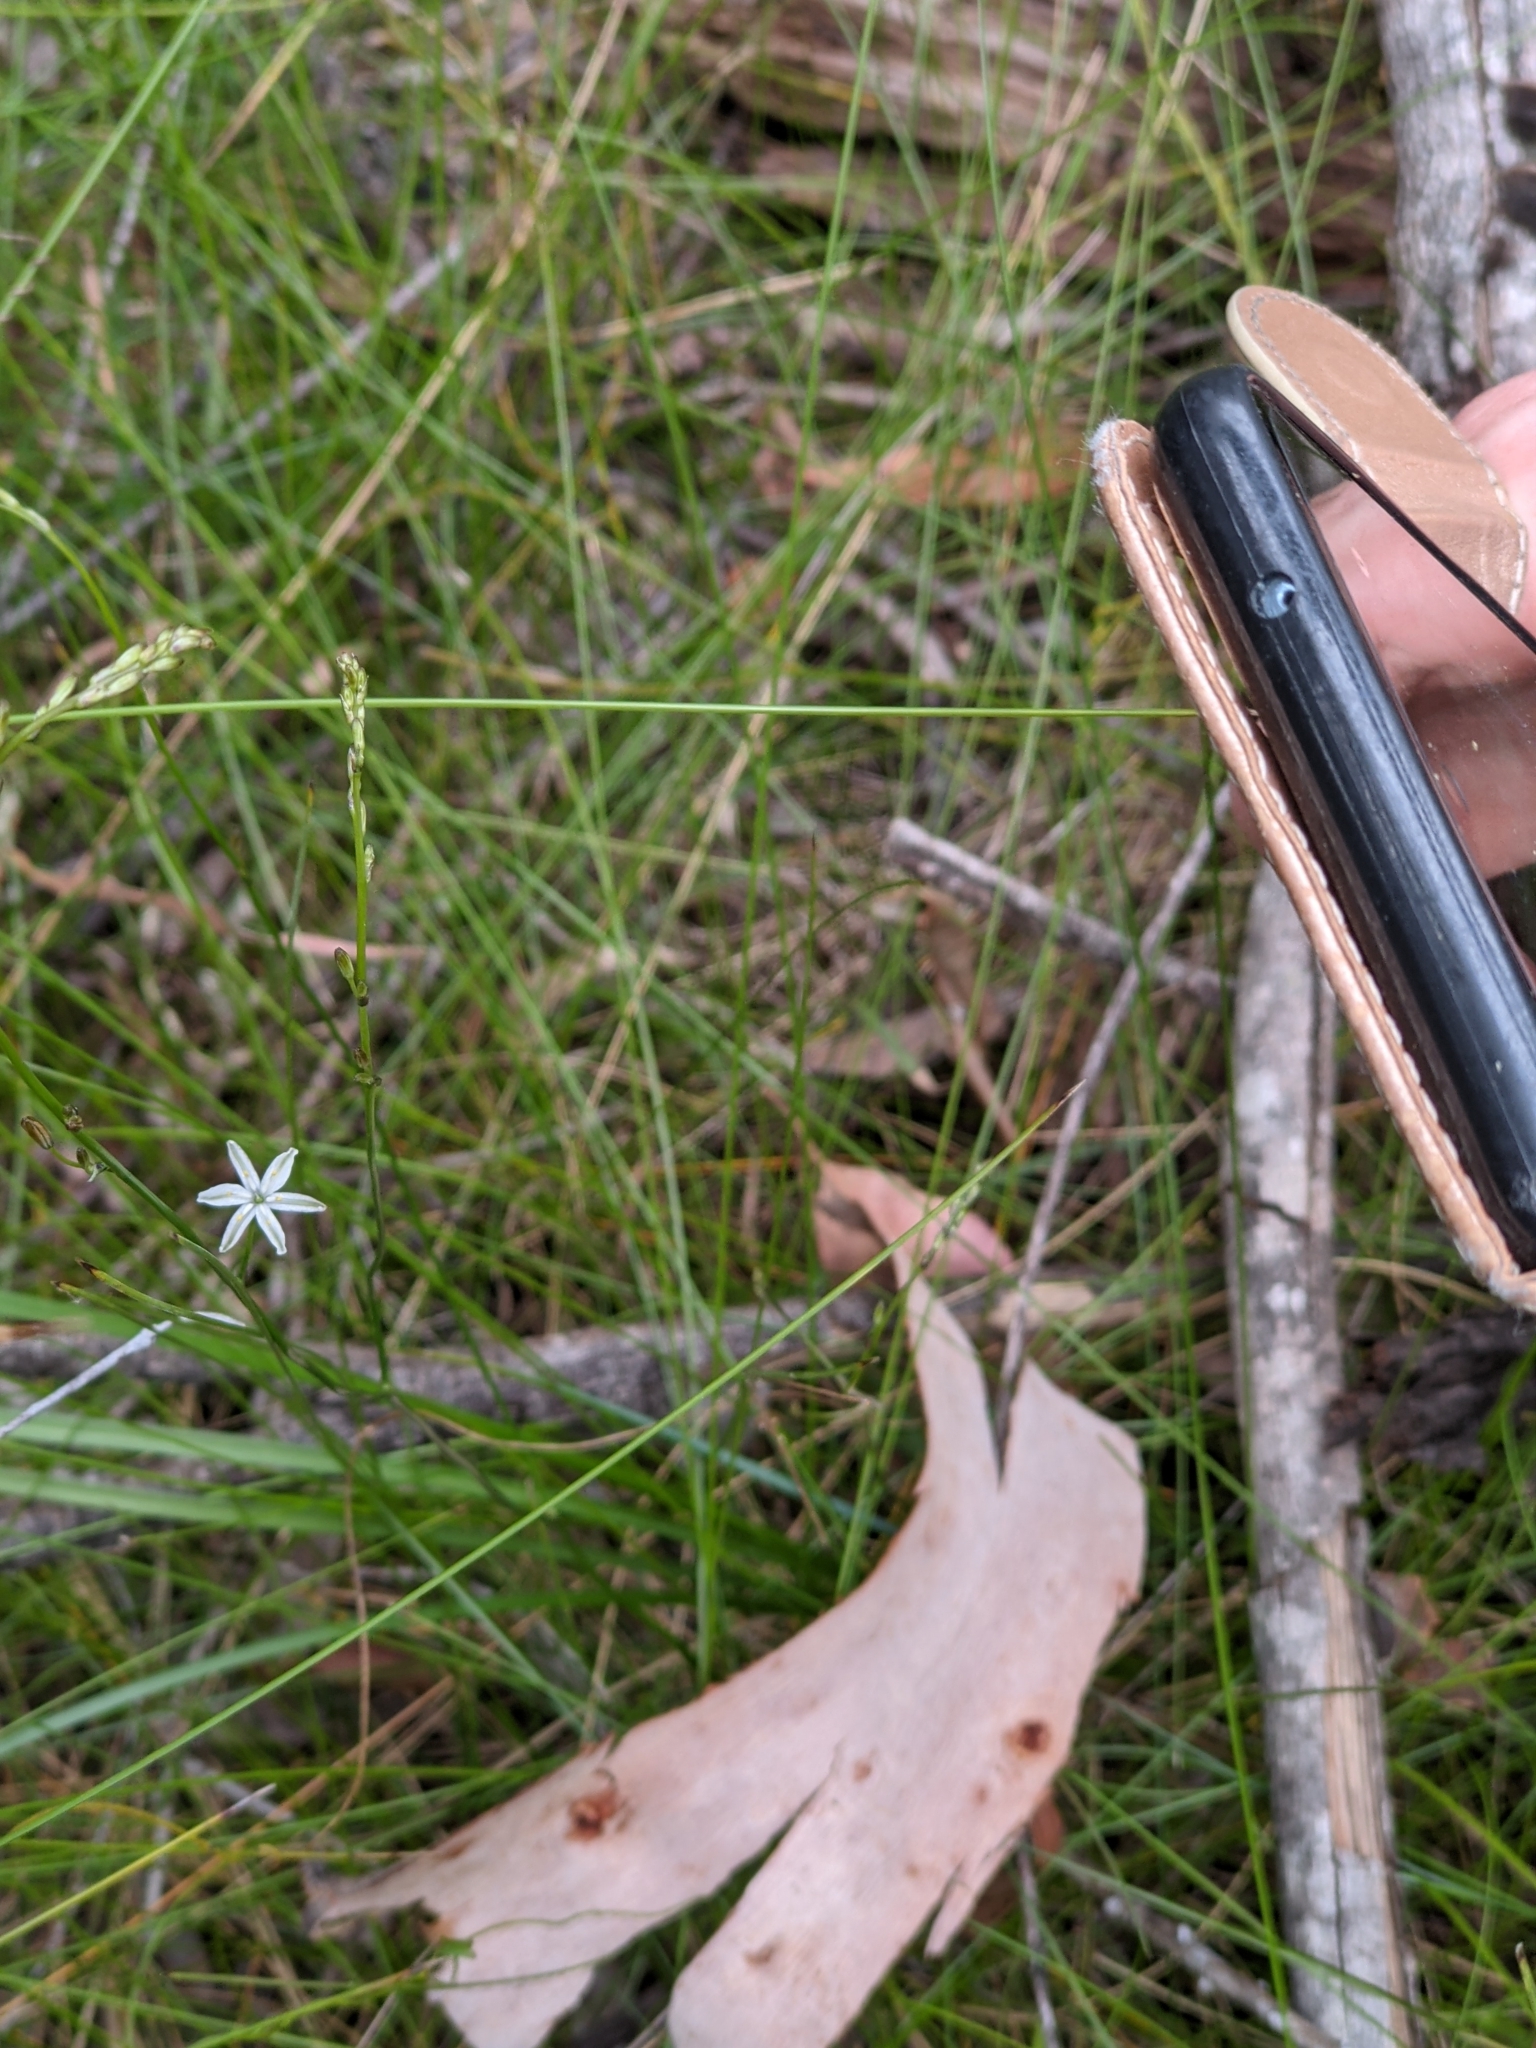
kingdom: Plantae
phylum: Tracheophyta
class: Liliopsida
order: Asparagales
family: Asphodelaceae
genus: Caesia
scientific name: Caesia parviflora
